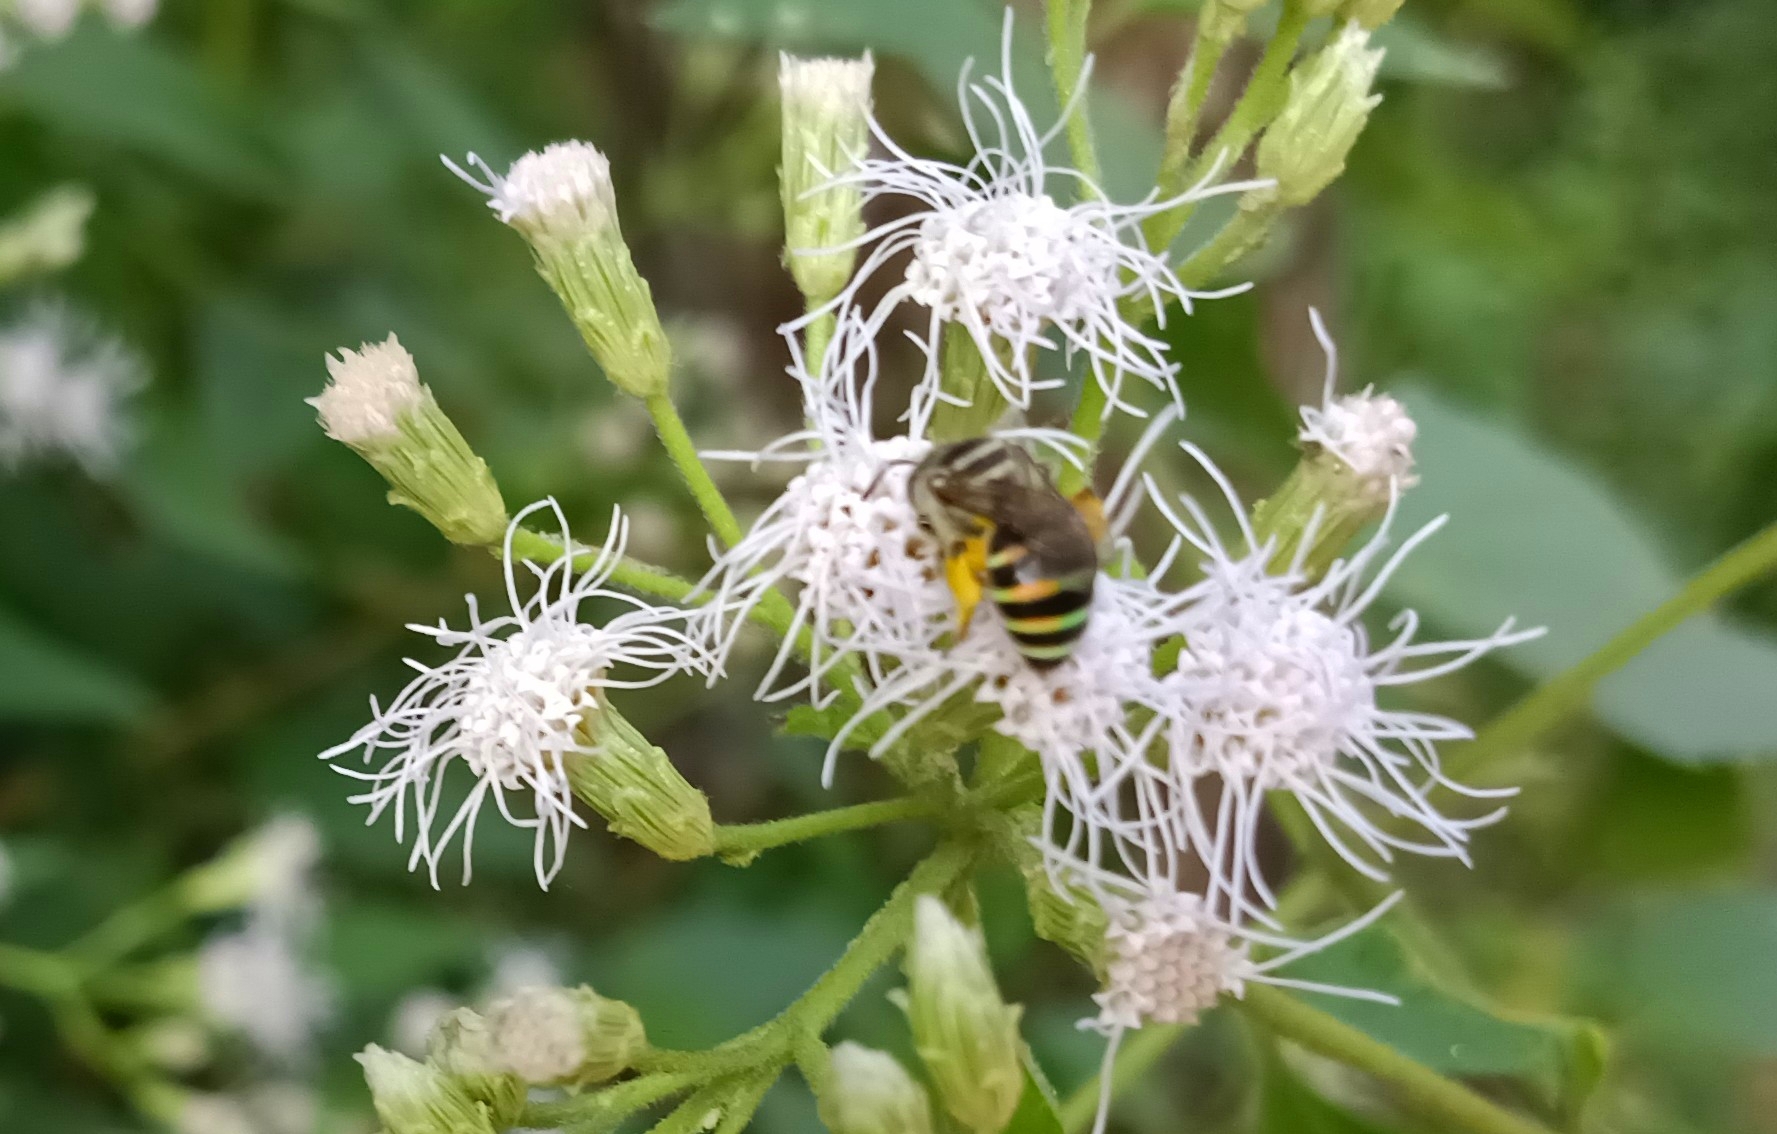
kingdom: Animalia
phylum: Arthropoda
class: Insecta
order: Hymenoptera
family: Halictidae
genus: Nomia
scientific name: Nomia westwoodi
